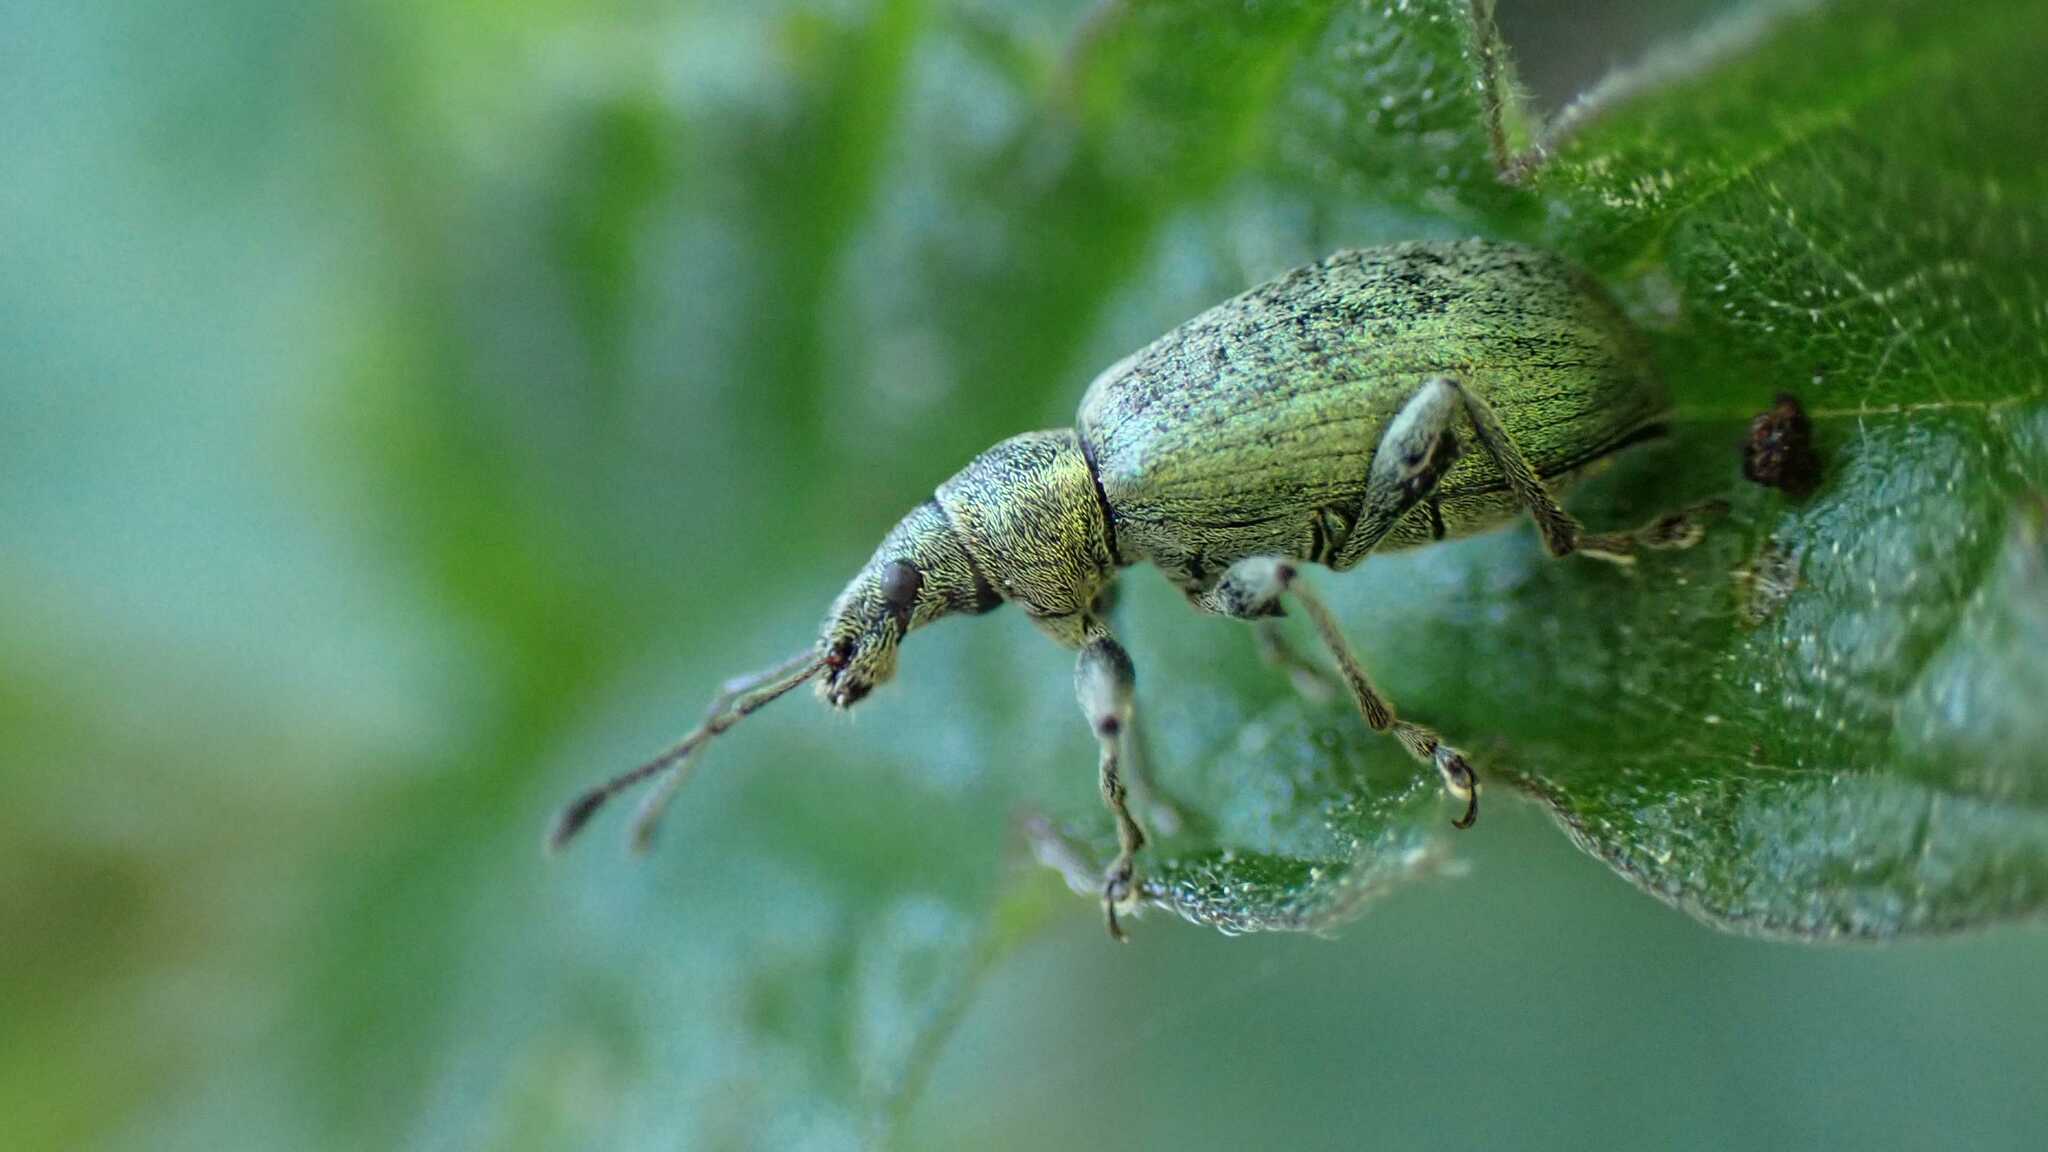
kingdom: Animalia
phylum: Arthropoda
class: Insecta
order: Coleoptera
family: Curculionidae
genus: Phyllobius
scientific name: Phyllobius pomaceus
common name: Green nettle weevil
